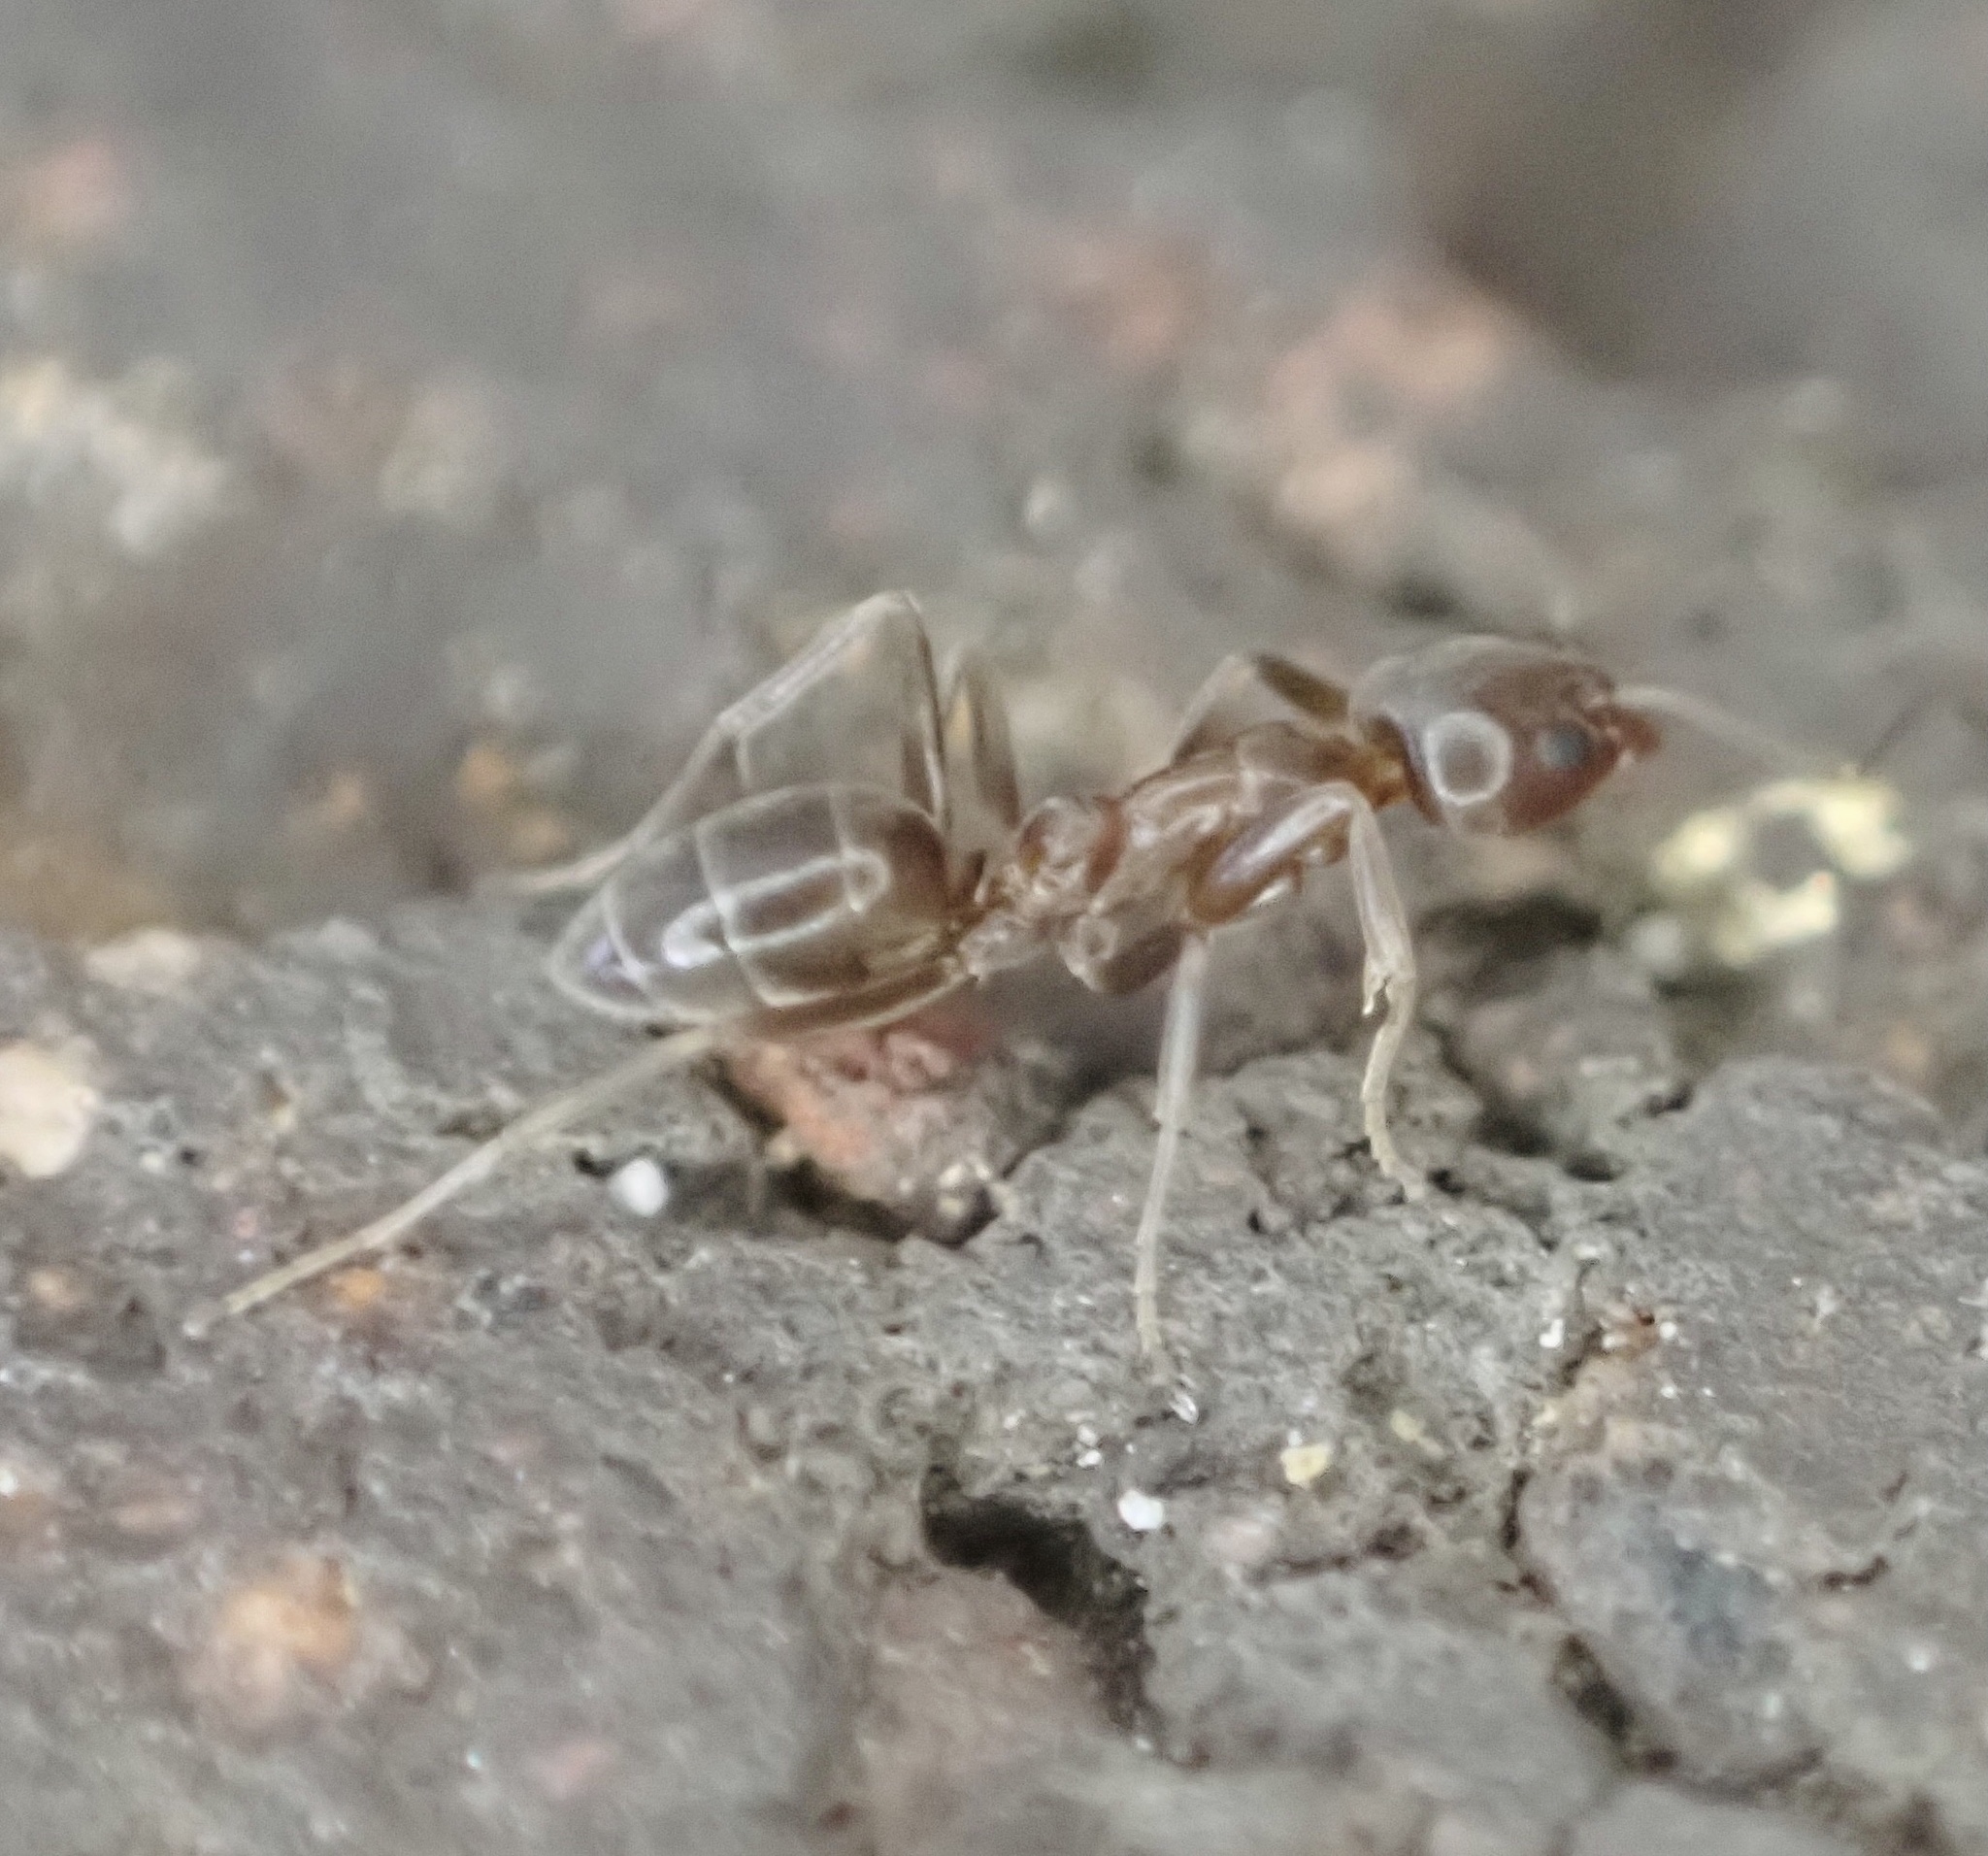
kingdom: Animalia
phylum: Arthropoda
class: Insecta
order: Hymenoptera
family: Formicidae
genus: Linepithema
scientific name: Linepithema humile
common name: Argentine ant
